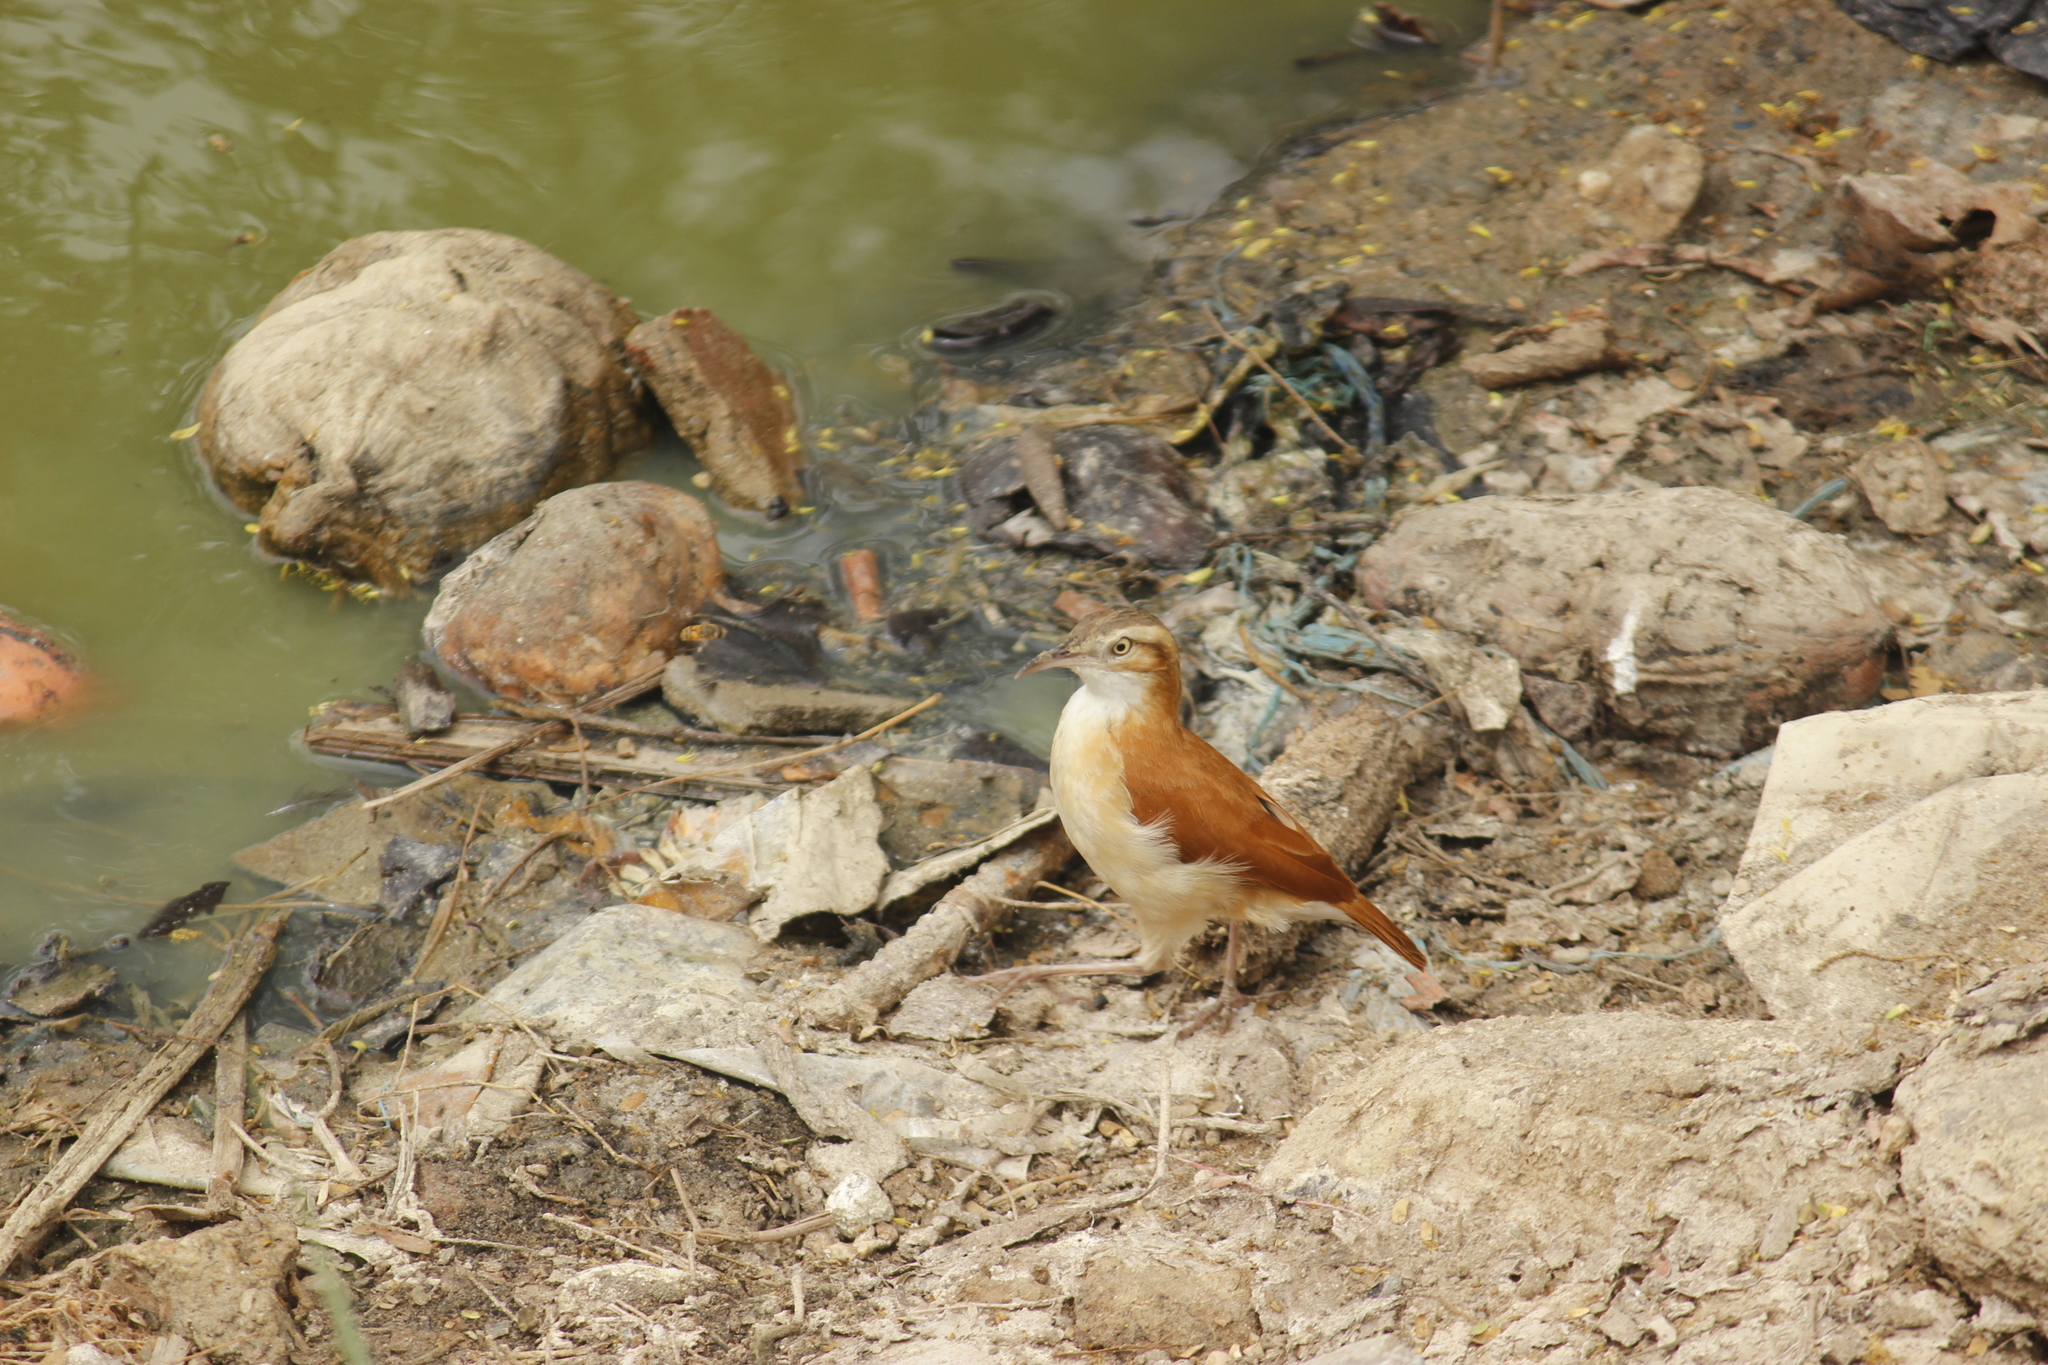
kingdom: Animalia
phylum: Chordata
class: Aves
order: Passeriformes
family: Furnariidae
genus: Furnarius
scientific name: Furnarius leucopus
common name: Pale-legged hornero
